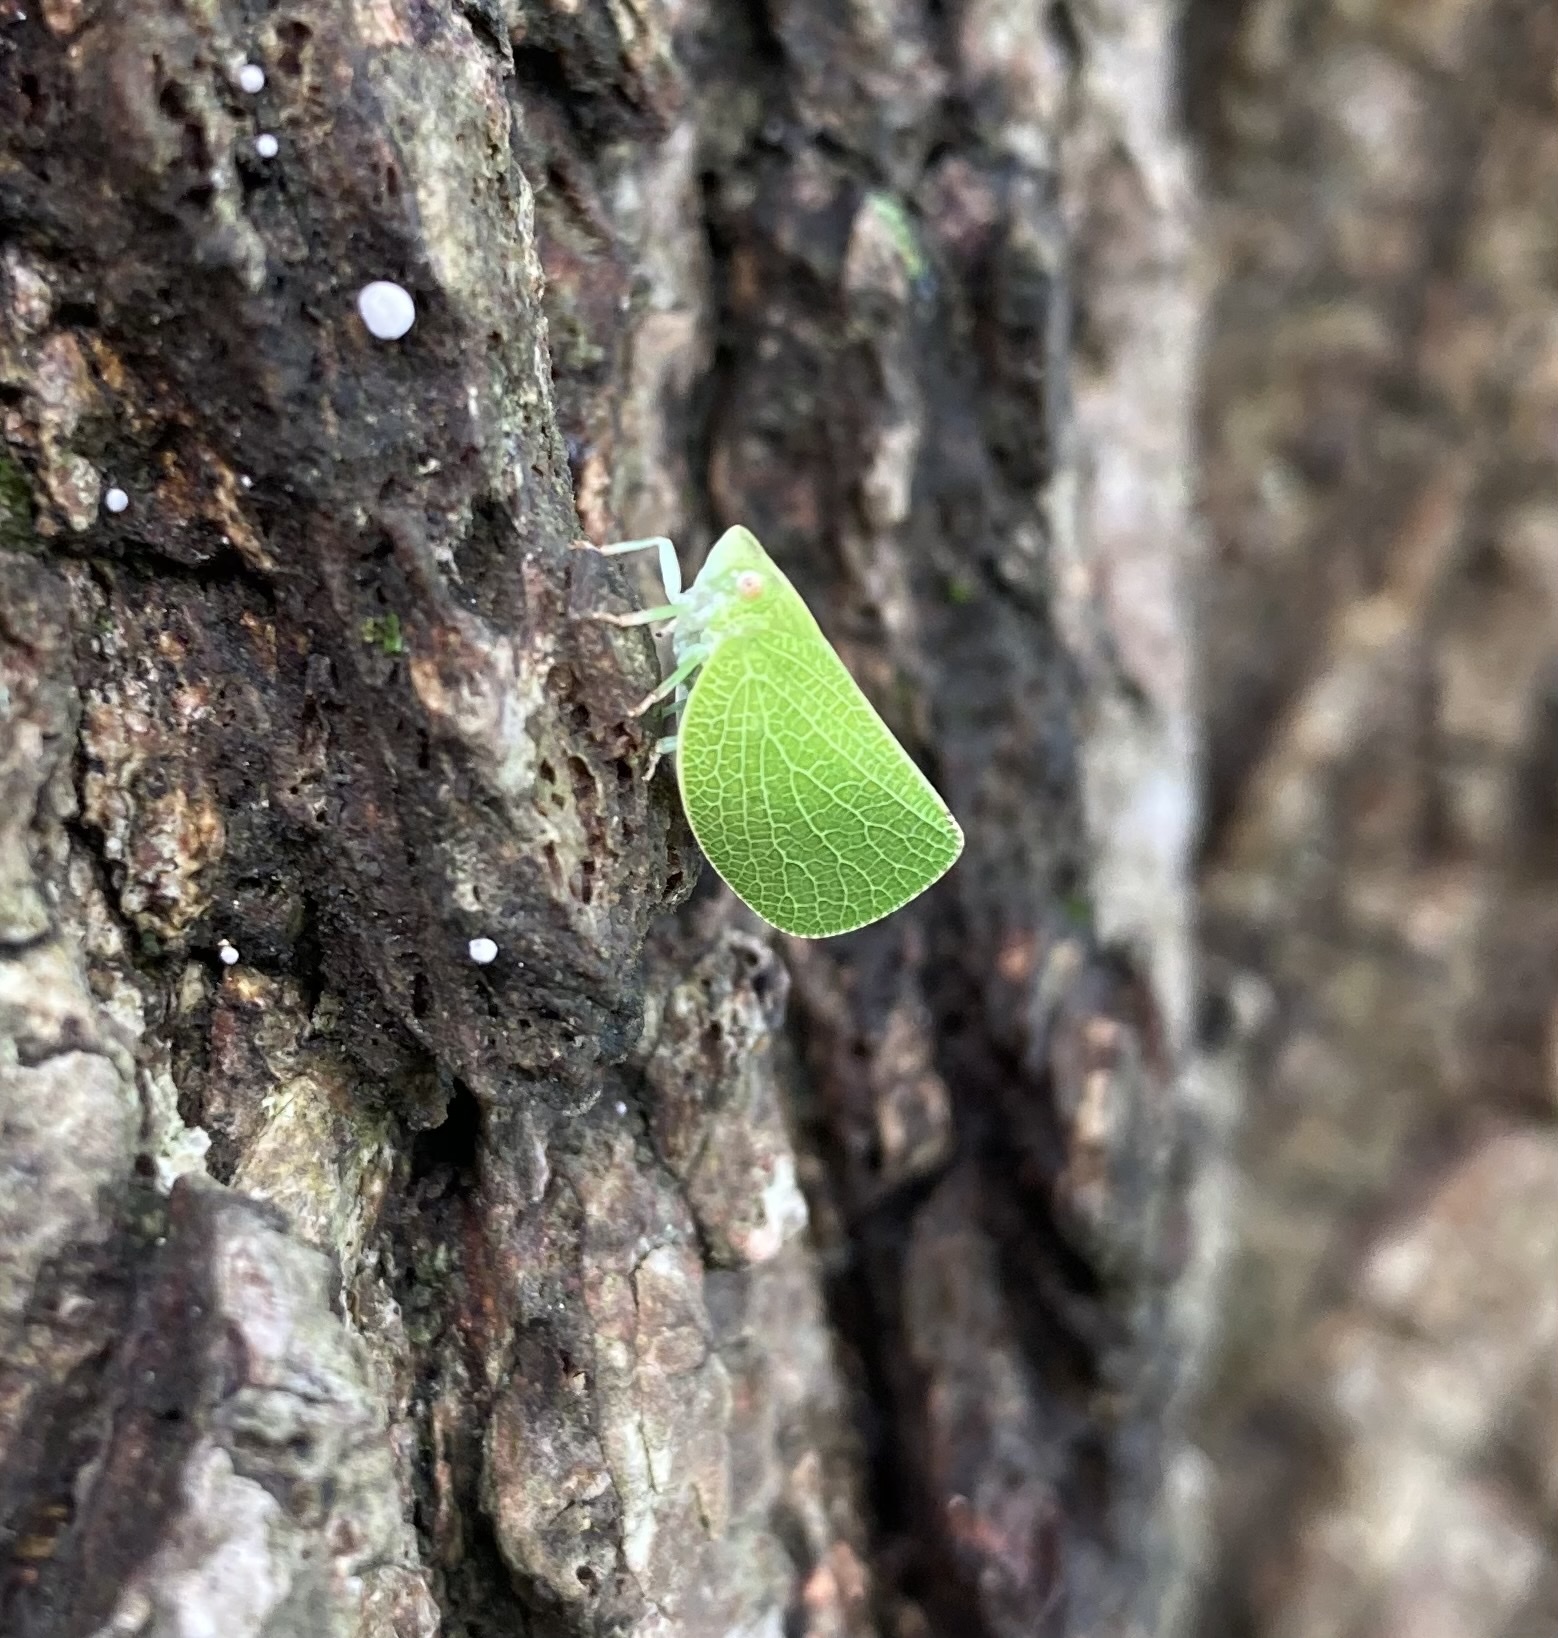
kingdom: Animalia
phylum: Arthropoda
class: Insecta
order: Hemiptera
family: Acanaloniidae
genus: Acanalonia
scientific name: Acanalonia conica
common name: Green cone-headed planthopper
